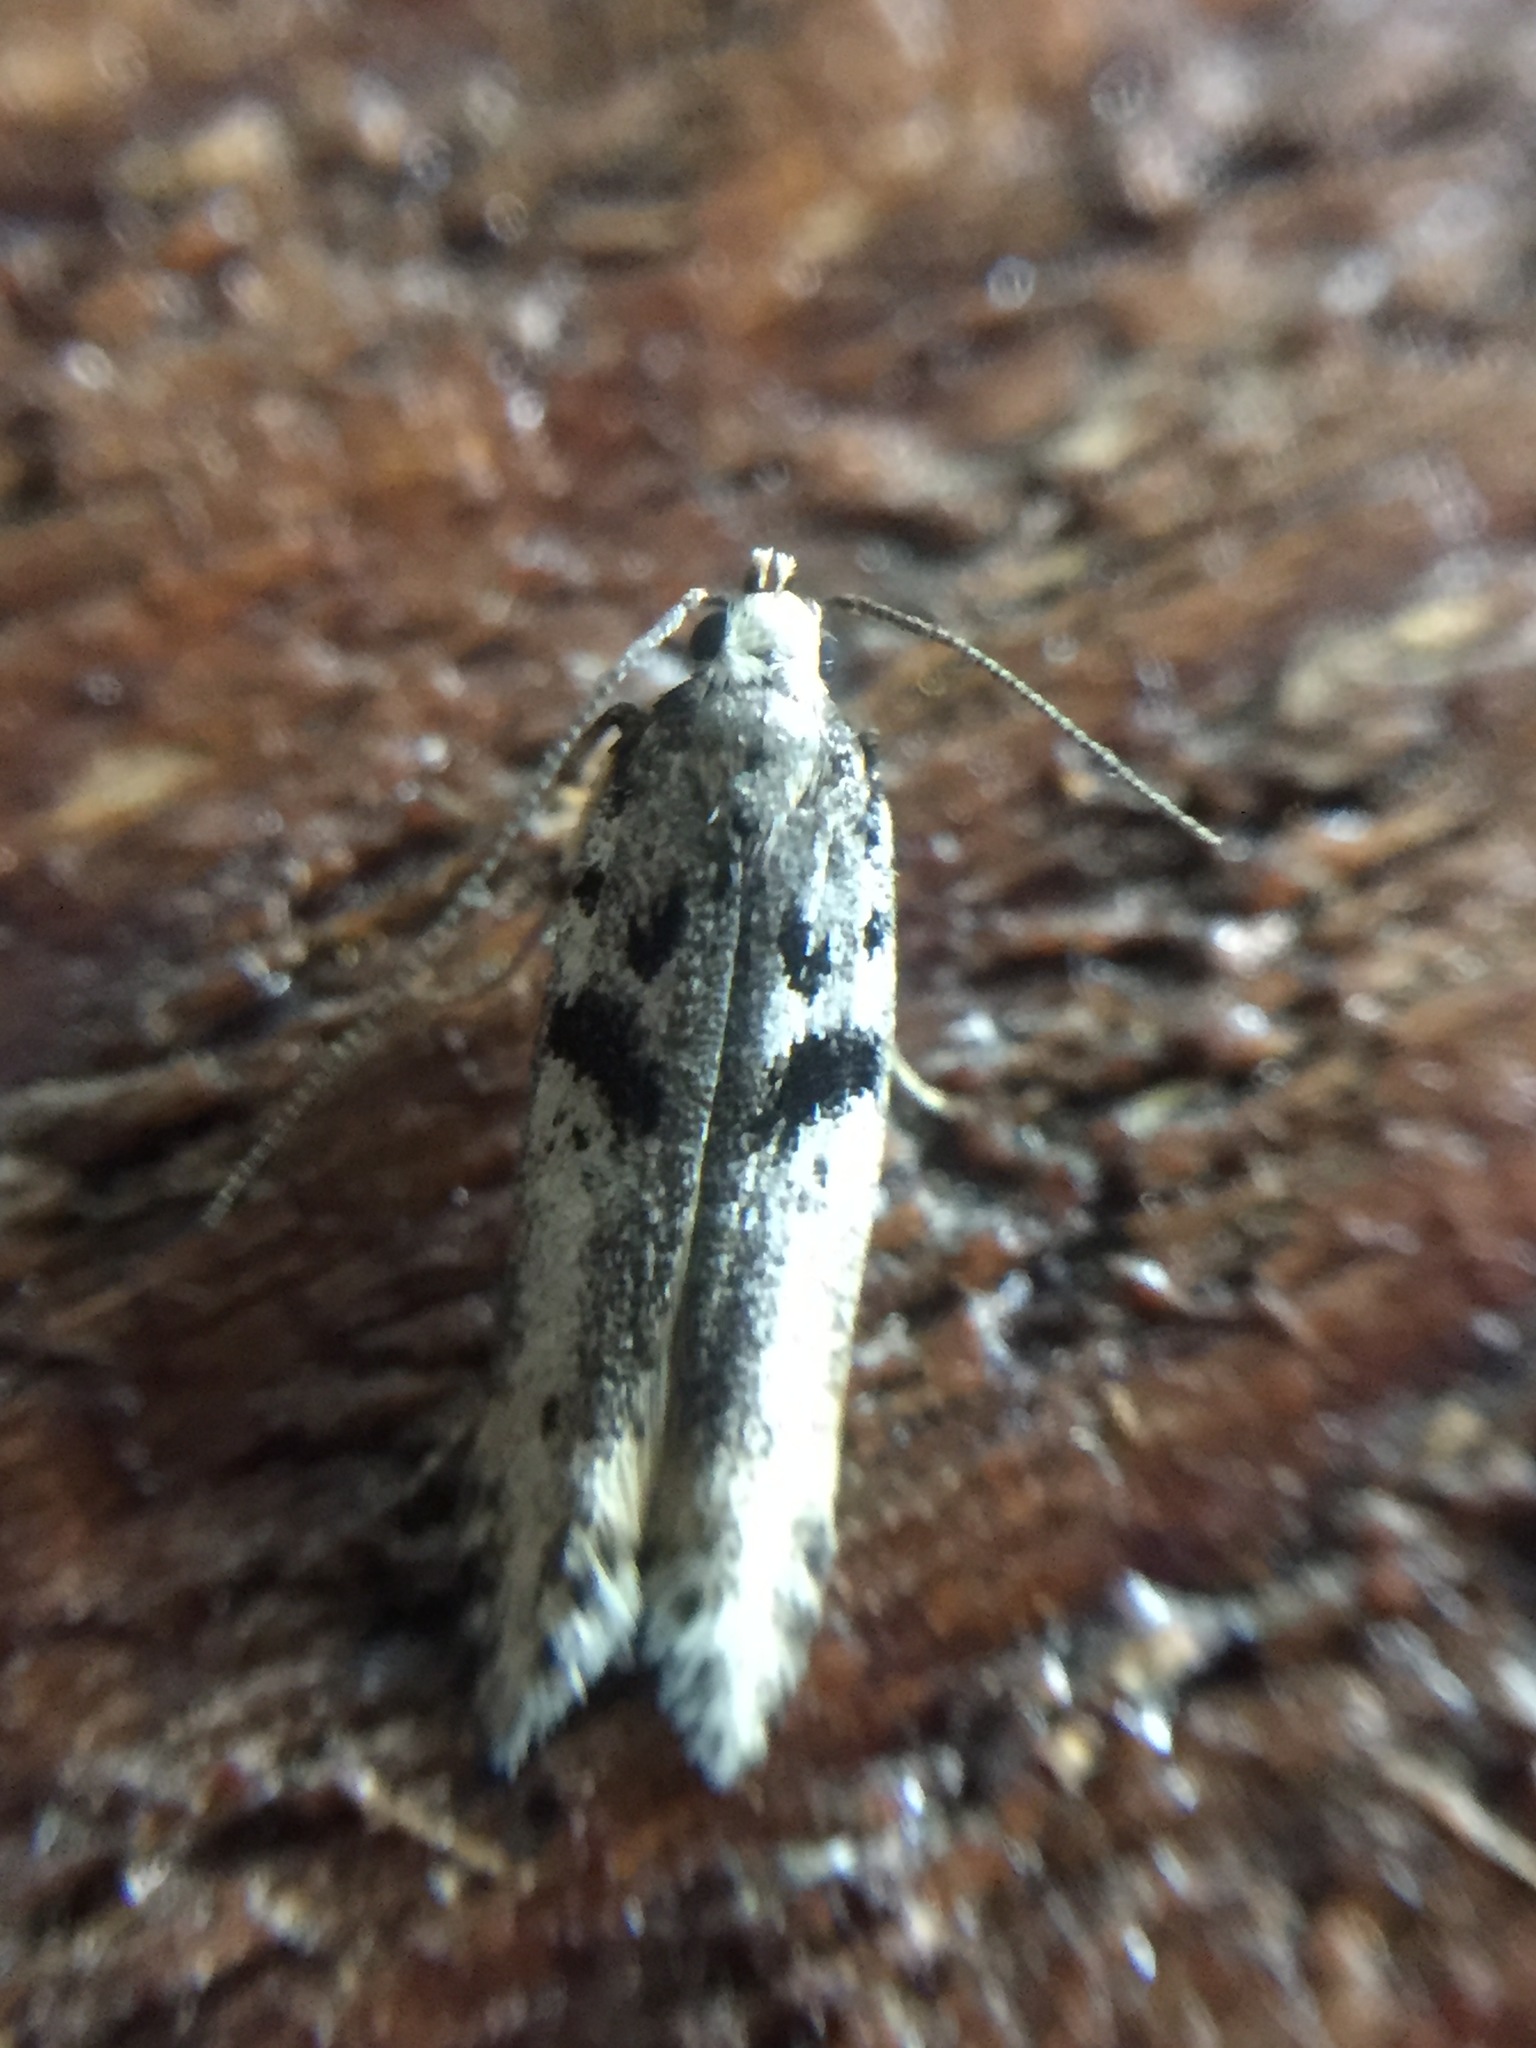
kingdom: Animalia
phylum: Arthropoda
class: Insecta
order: Lepidoptera
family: Gelechiidae
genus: Aristotelia
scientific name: Aristotelia paradesma
